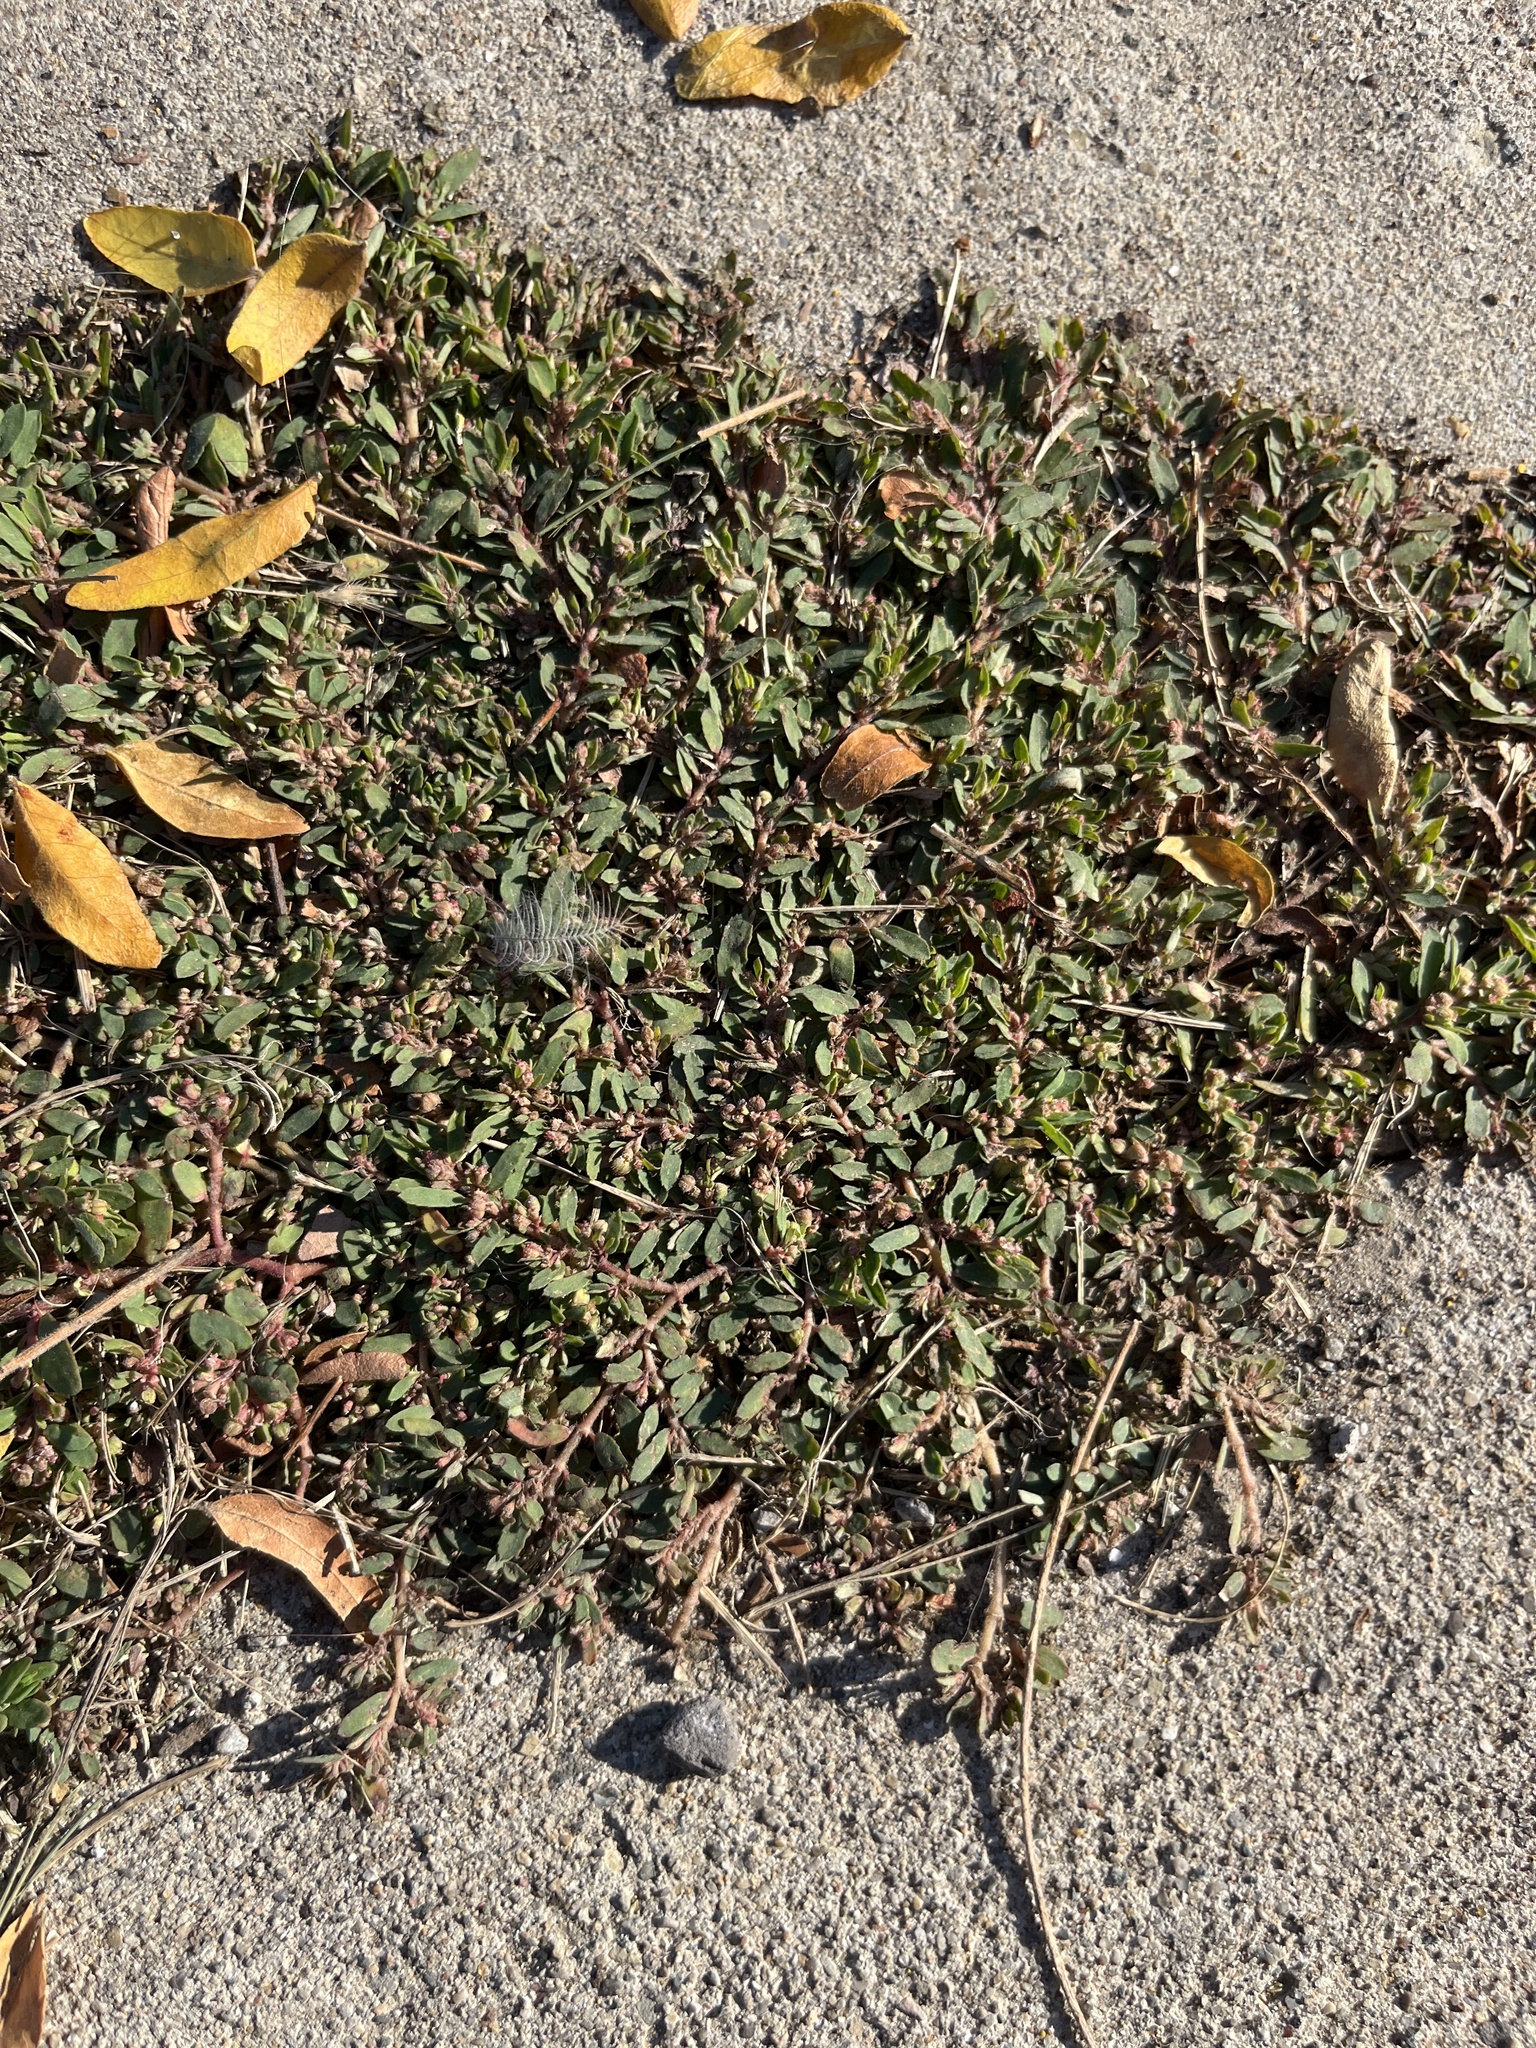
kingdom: Plantae
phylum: Tracheophyta
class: Magnoliopsida
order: Malpighiales
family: Euphorbiaceae
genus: Euphorbia
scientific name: Euphorbia maculata
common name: Spotted spurge
